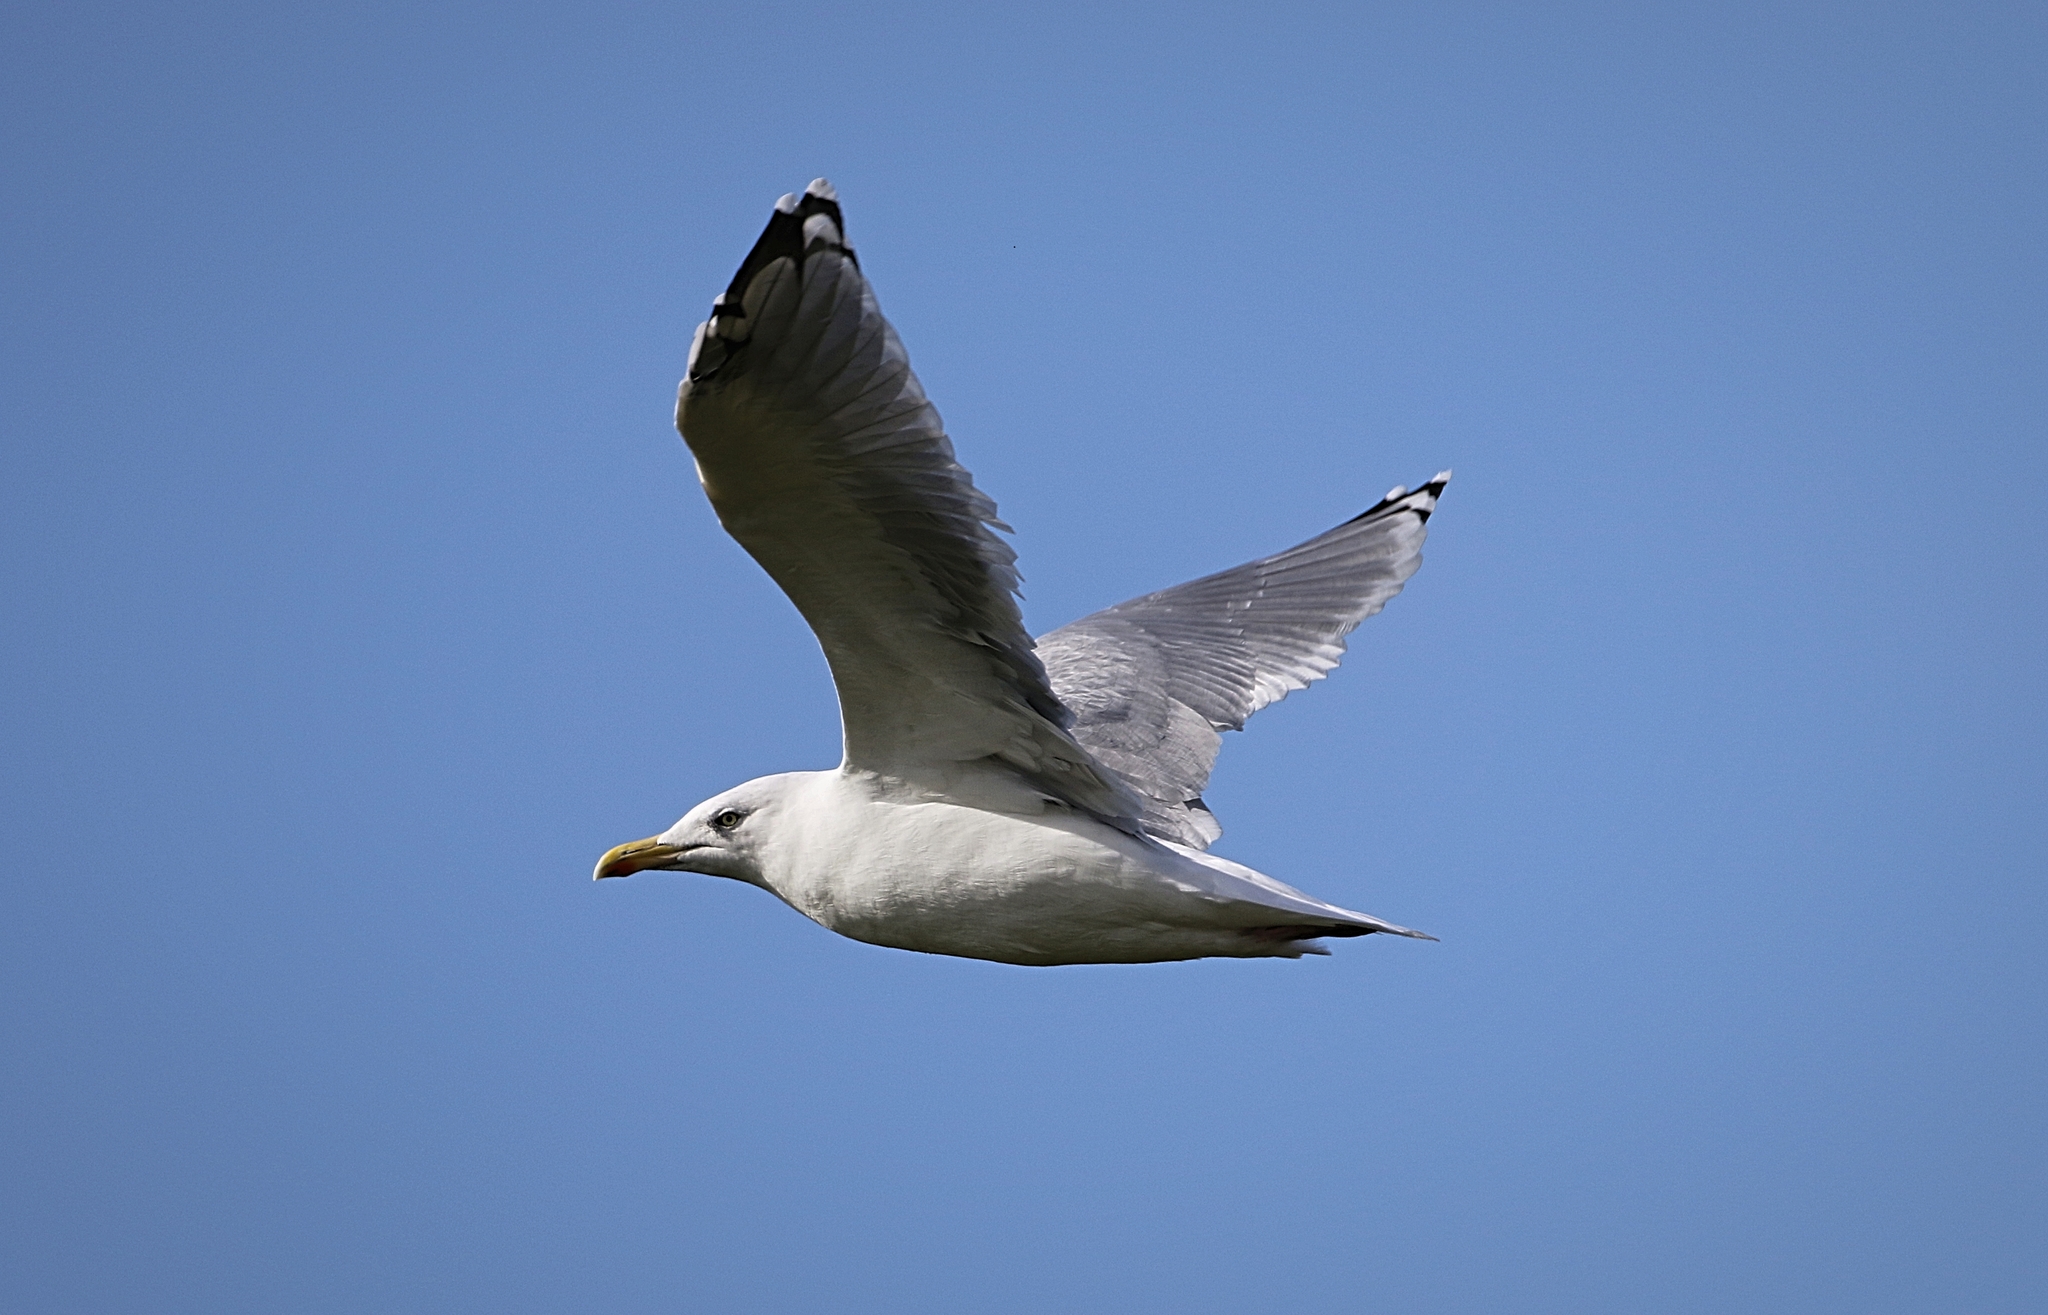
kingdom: Animalia
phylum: Chordata
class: Aves
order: Charadriiformes
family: Laridae
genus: Larus
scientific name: Larus argentatus
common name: Herring gull
